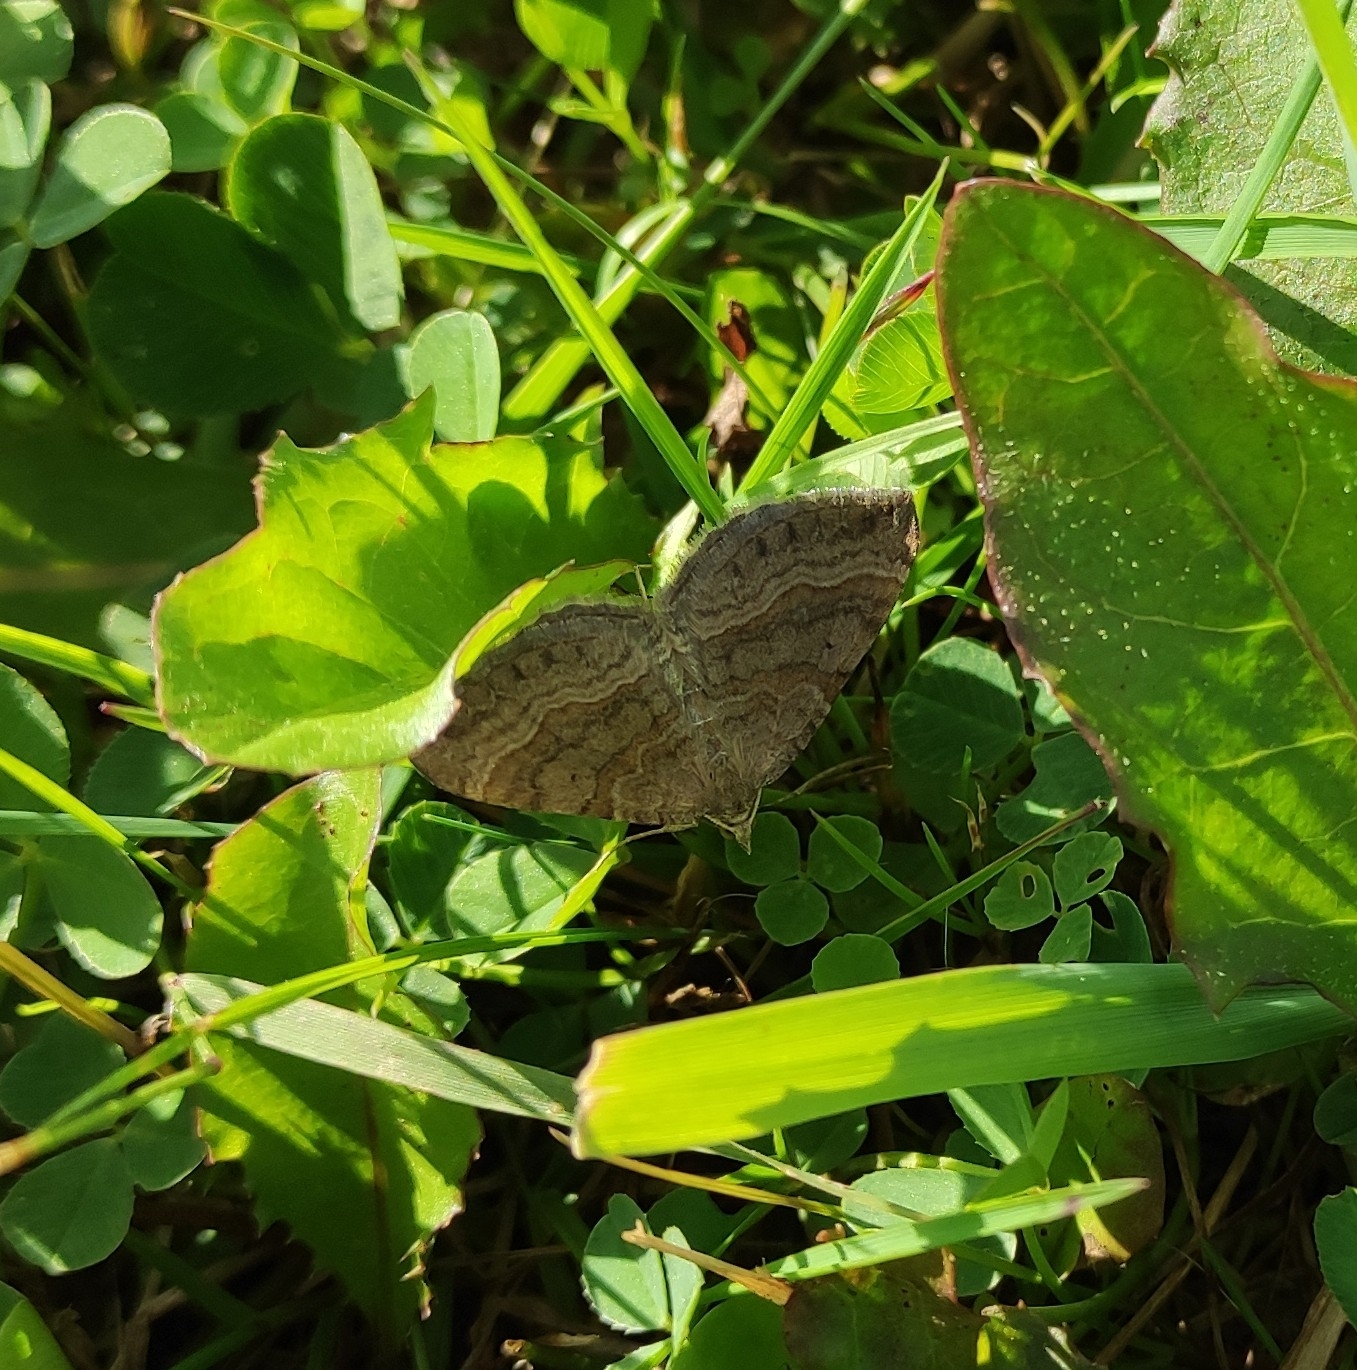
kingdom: Animalia
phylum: Arthropoda
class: Insecta
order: Lepidoptera
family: Geometridae
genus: Scotopteryx
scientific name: Scotopteryx chenopodiata
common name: Shaded broad-bar
